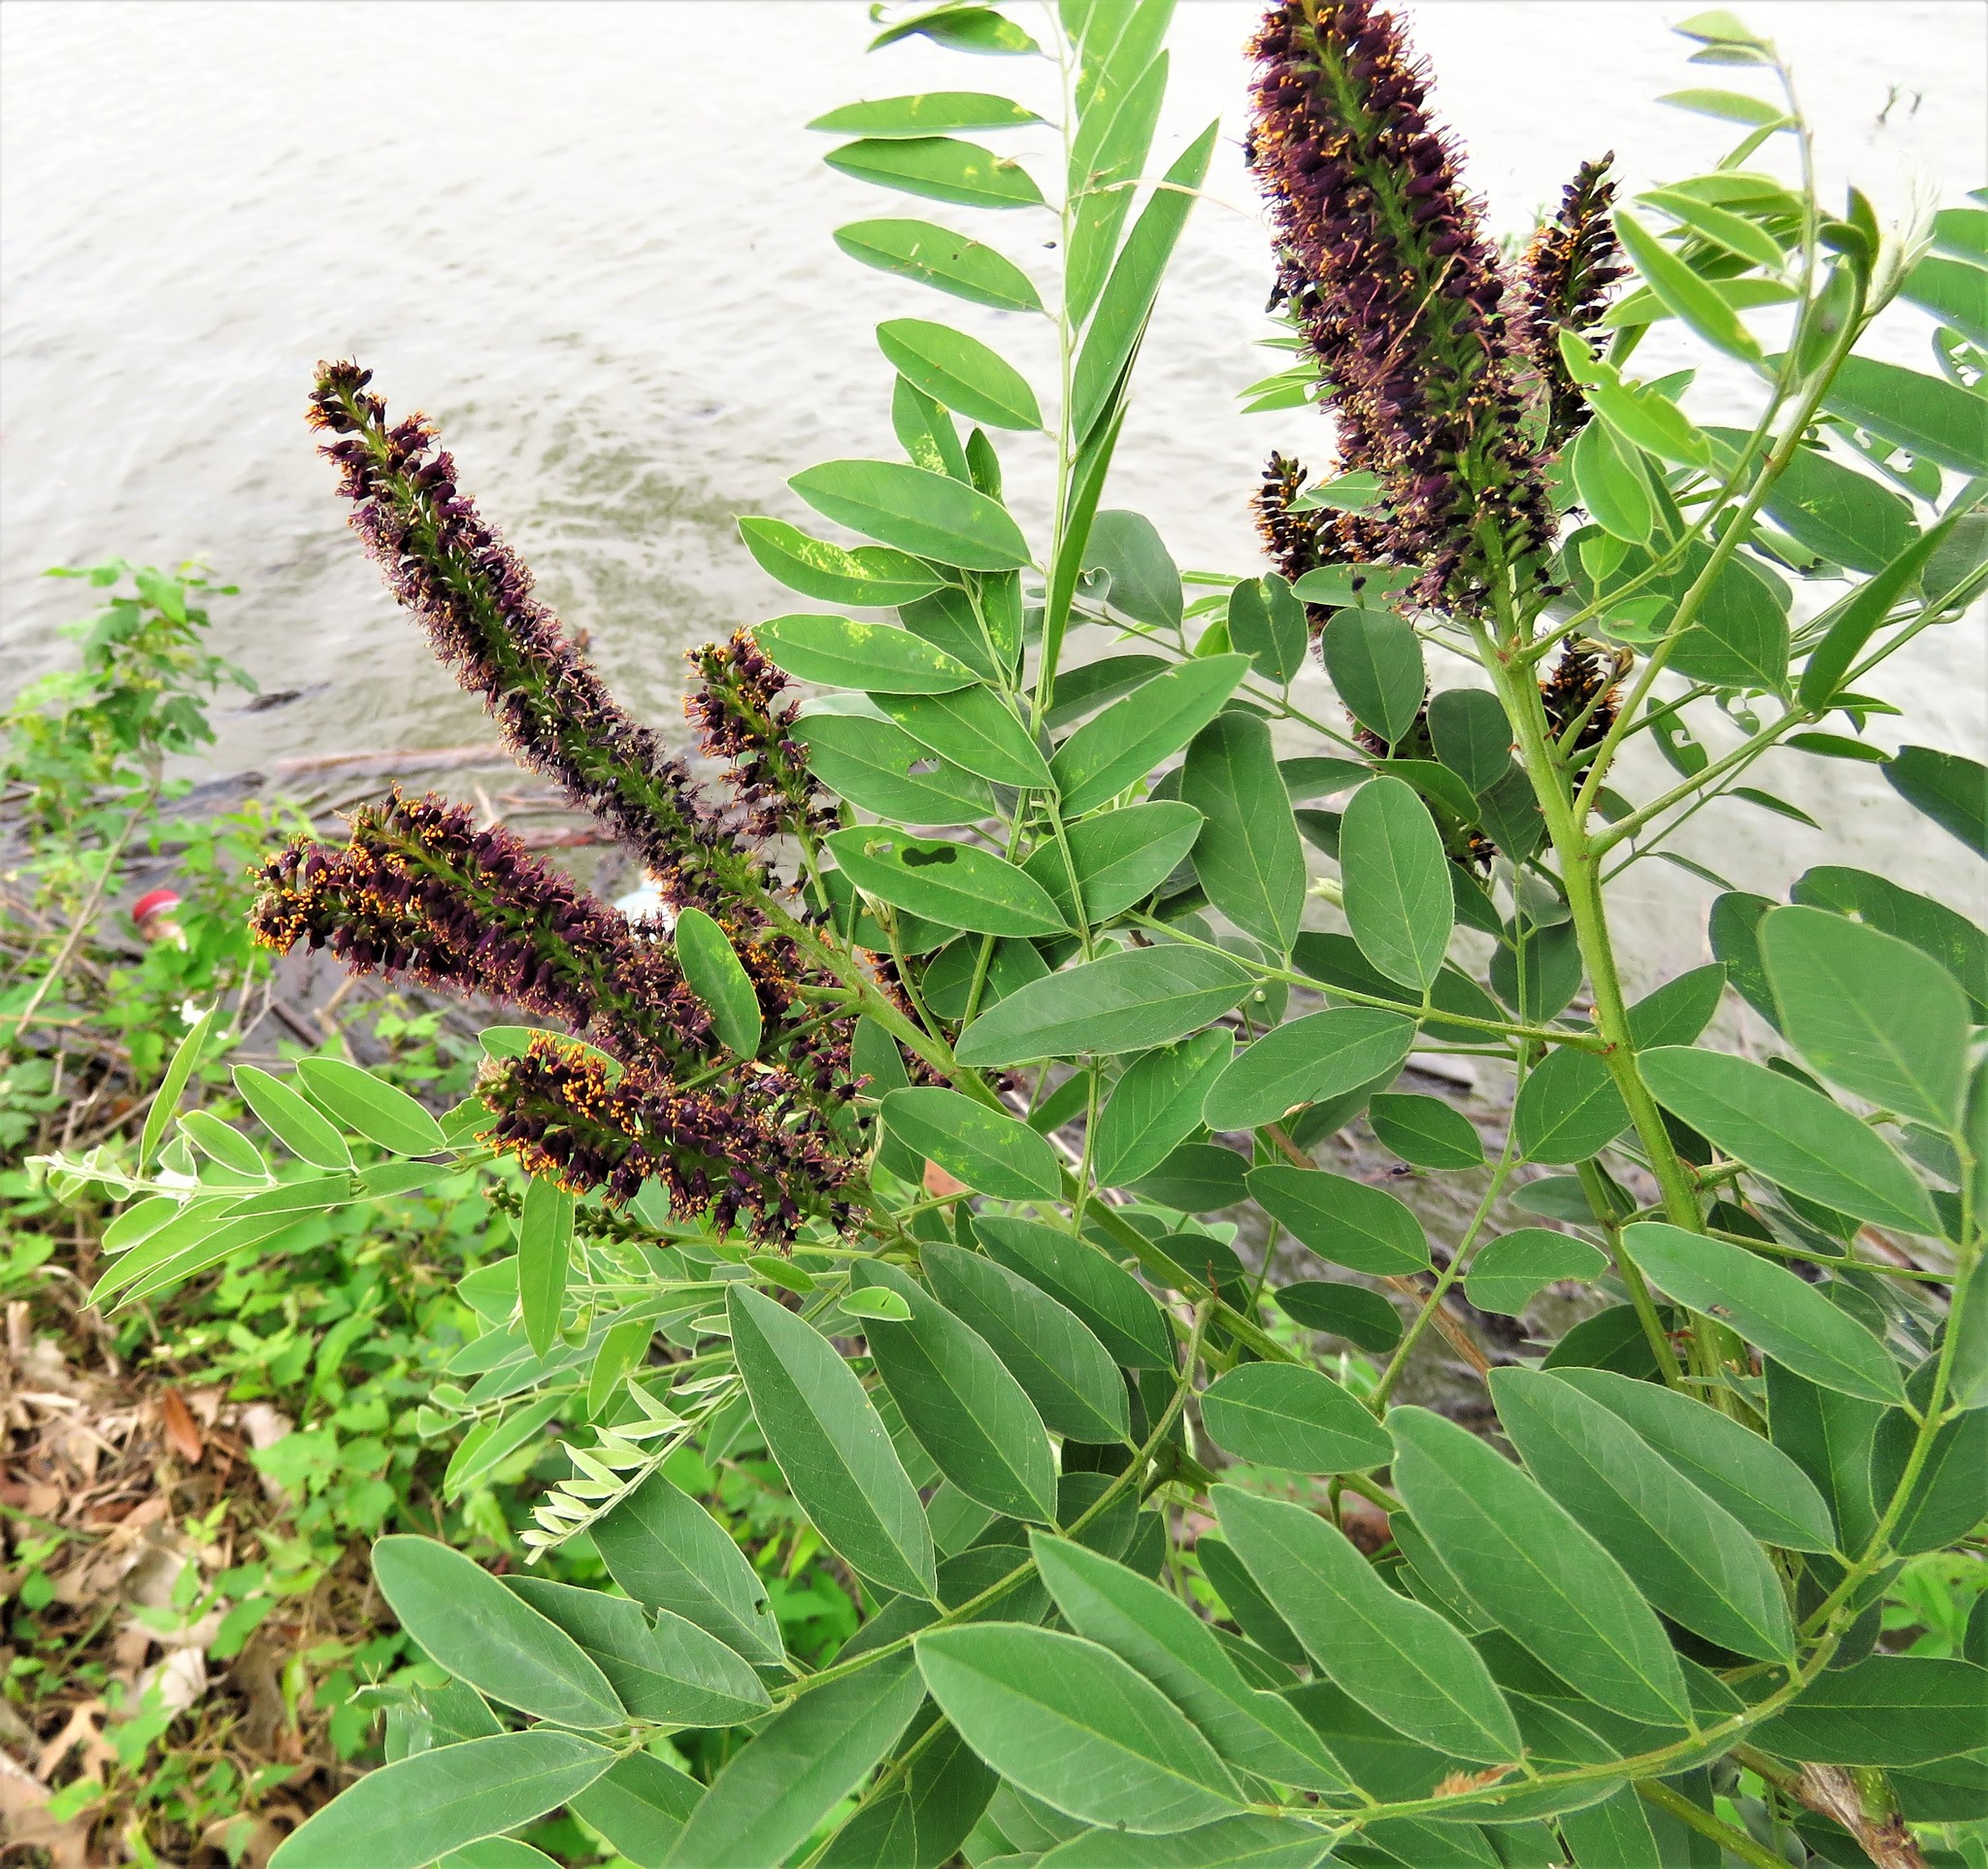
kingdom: Plantae
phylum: Tracheophyta
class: Magnoliopsida
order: Fabales
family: Fabaceae
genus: Amorpha
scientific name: Amorpha fruticosa
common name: False indigo
